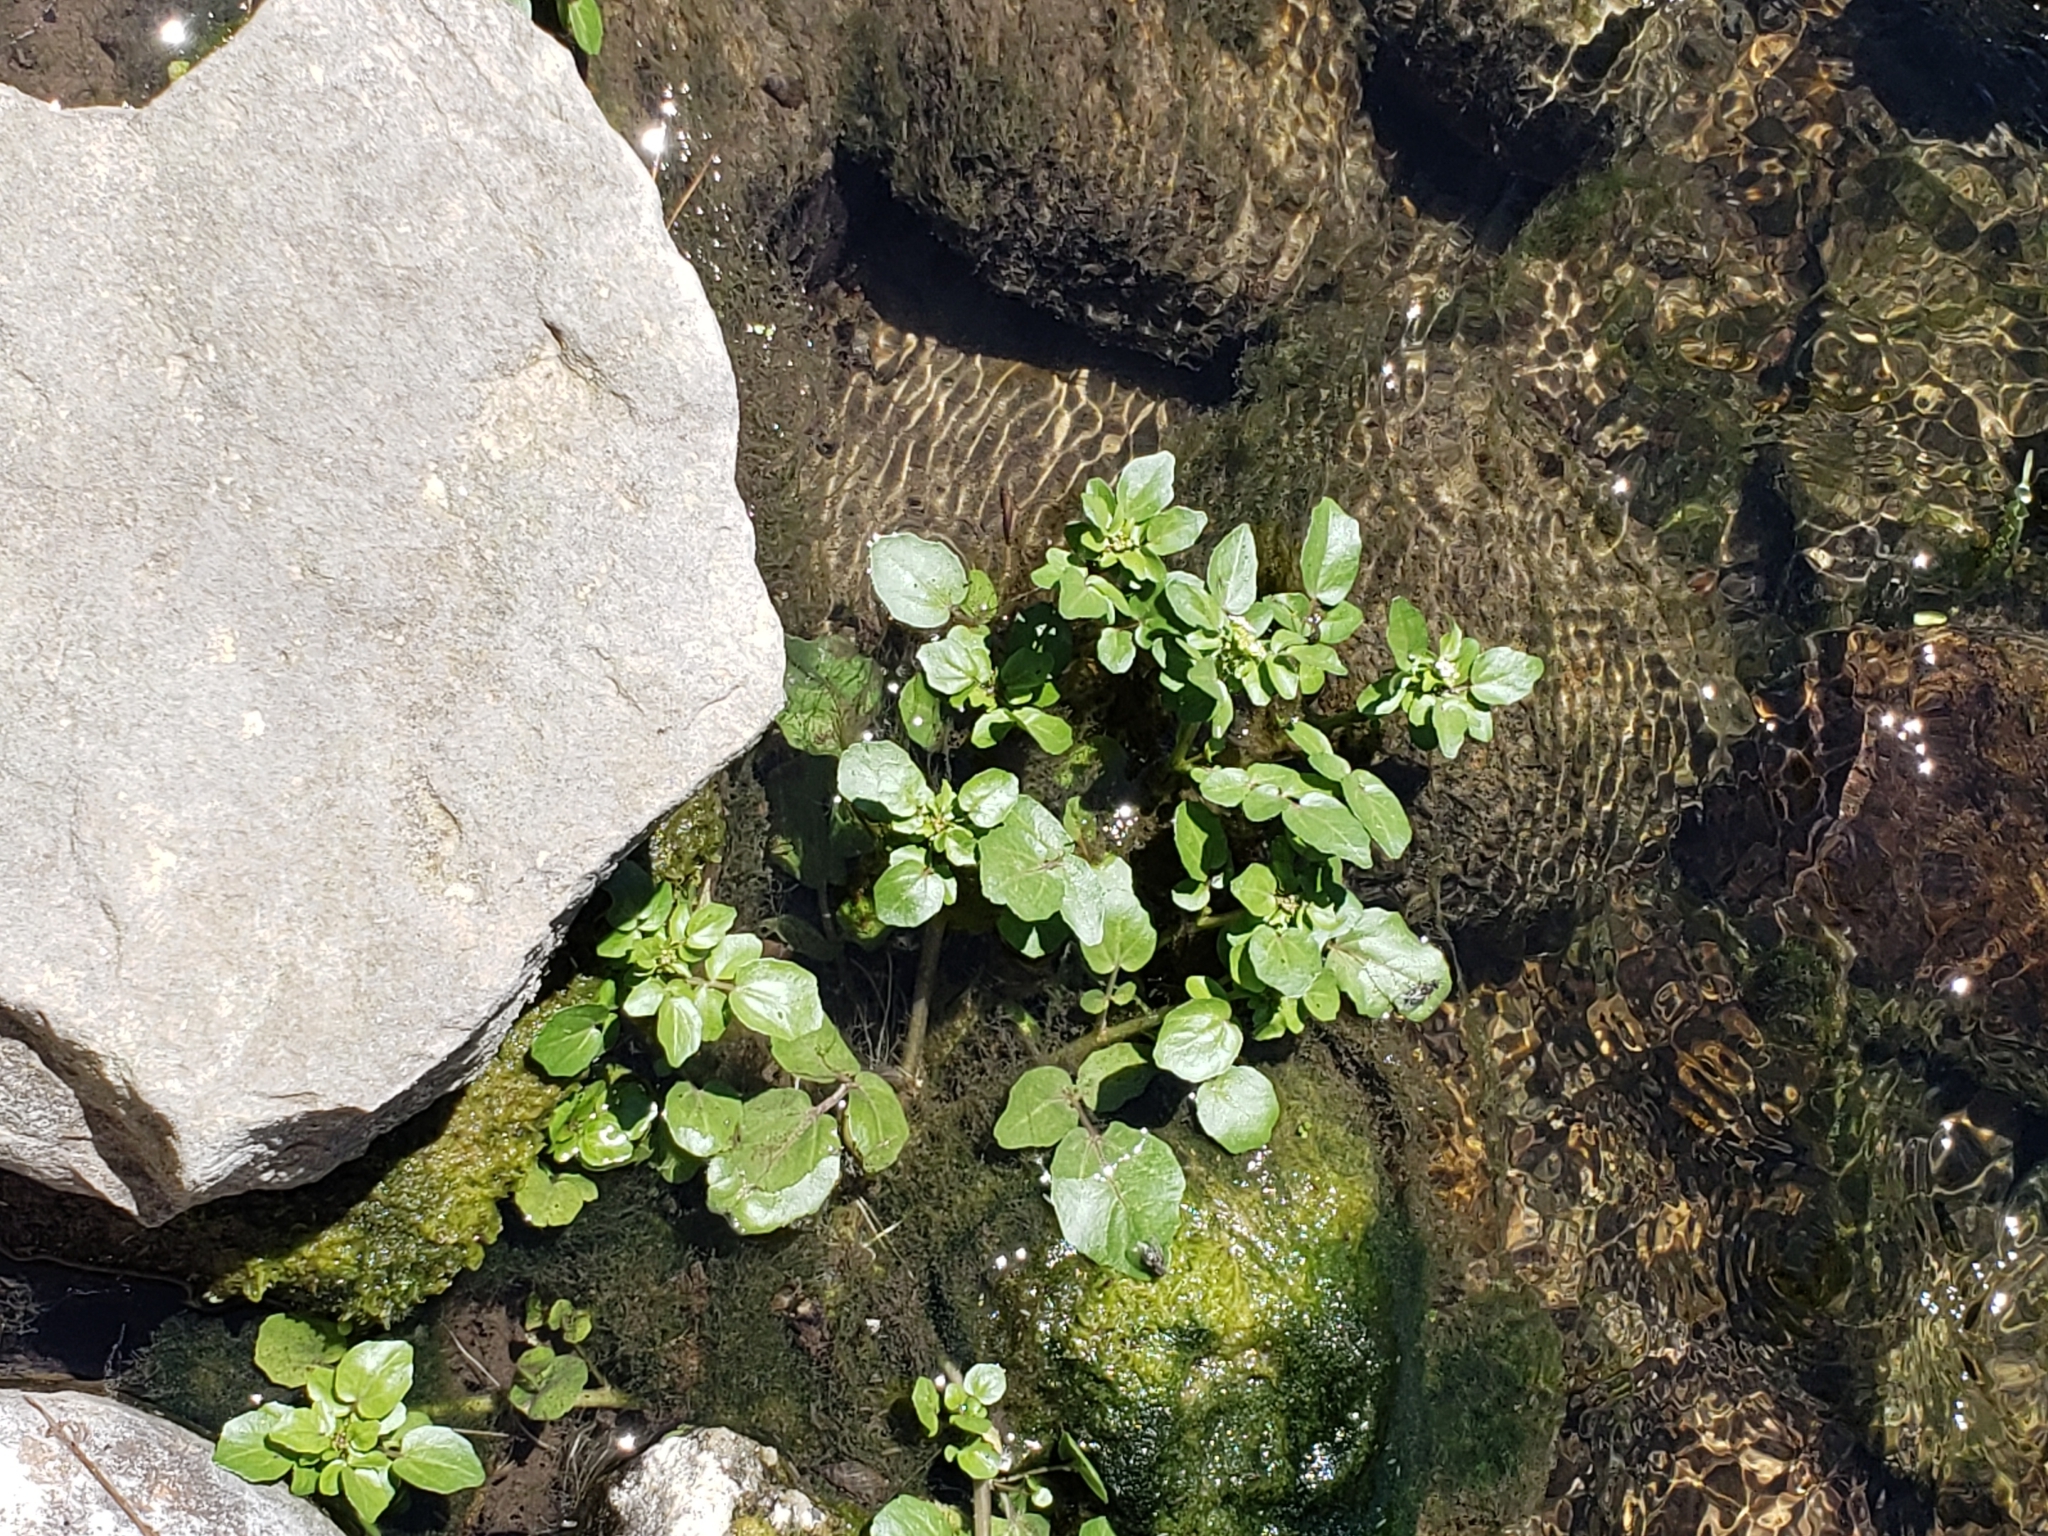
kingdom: Plantae
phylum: Tracheophyta
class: Magnoliopsida
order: Brassicales
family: Brassicaceae
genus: Nasturtium
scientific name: Nasturtium officinale
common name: Watercress
